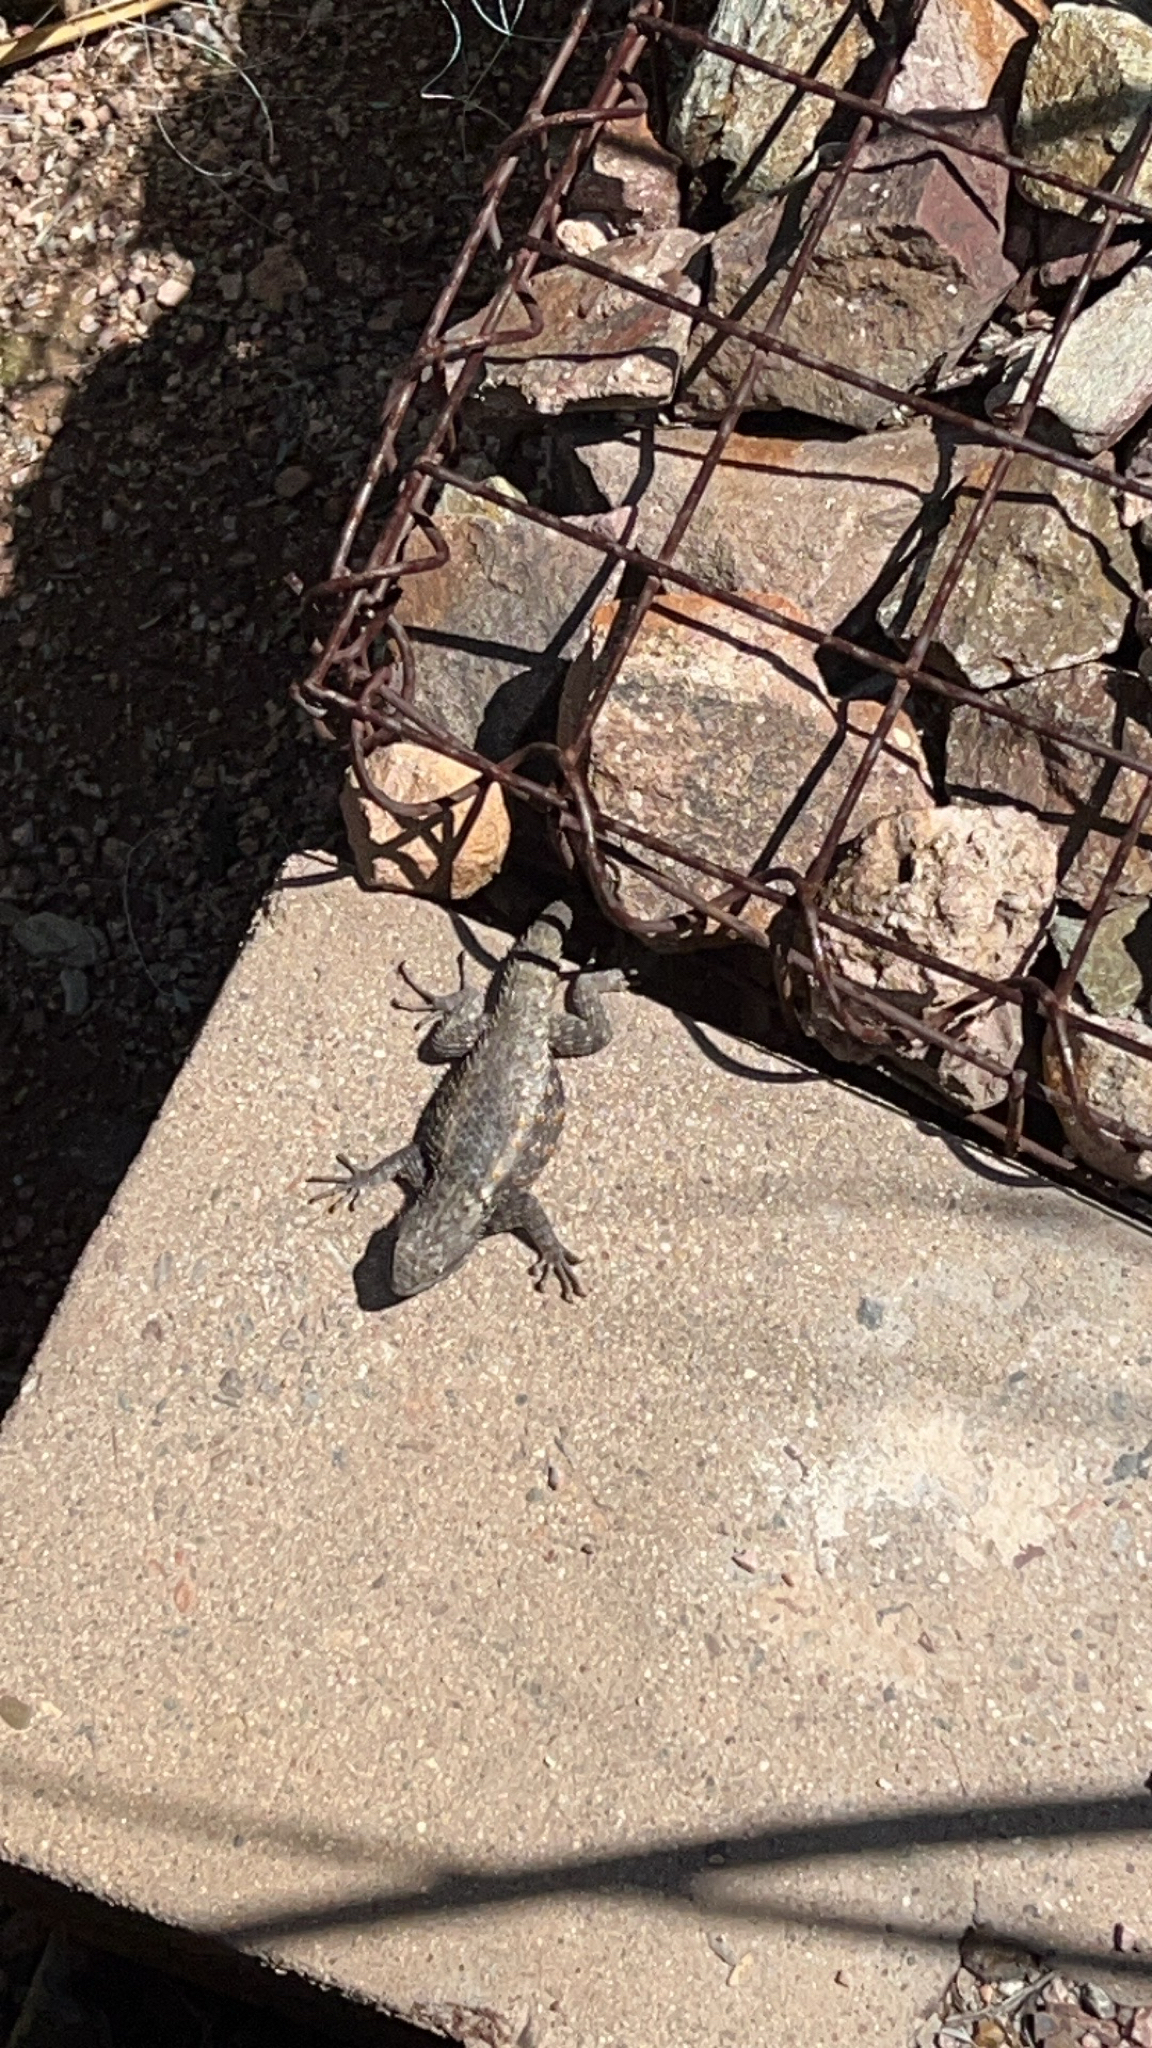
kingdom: Animalia
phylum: Chordata
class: Squamata
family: Phrynosomatidae
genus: Sceloporus
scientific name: Sceloporus magister
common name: Desert spiny lizard
